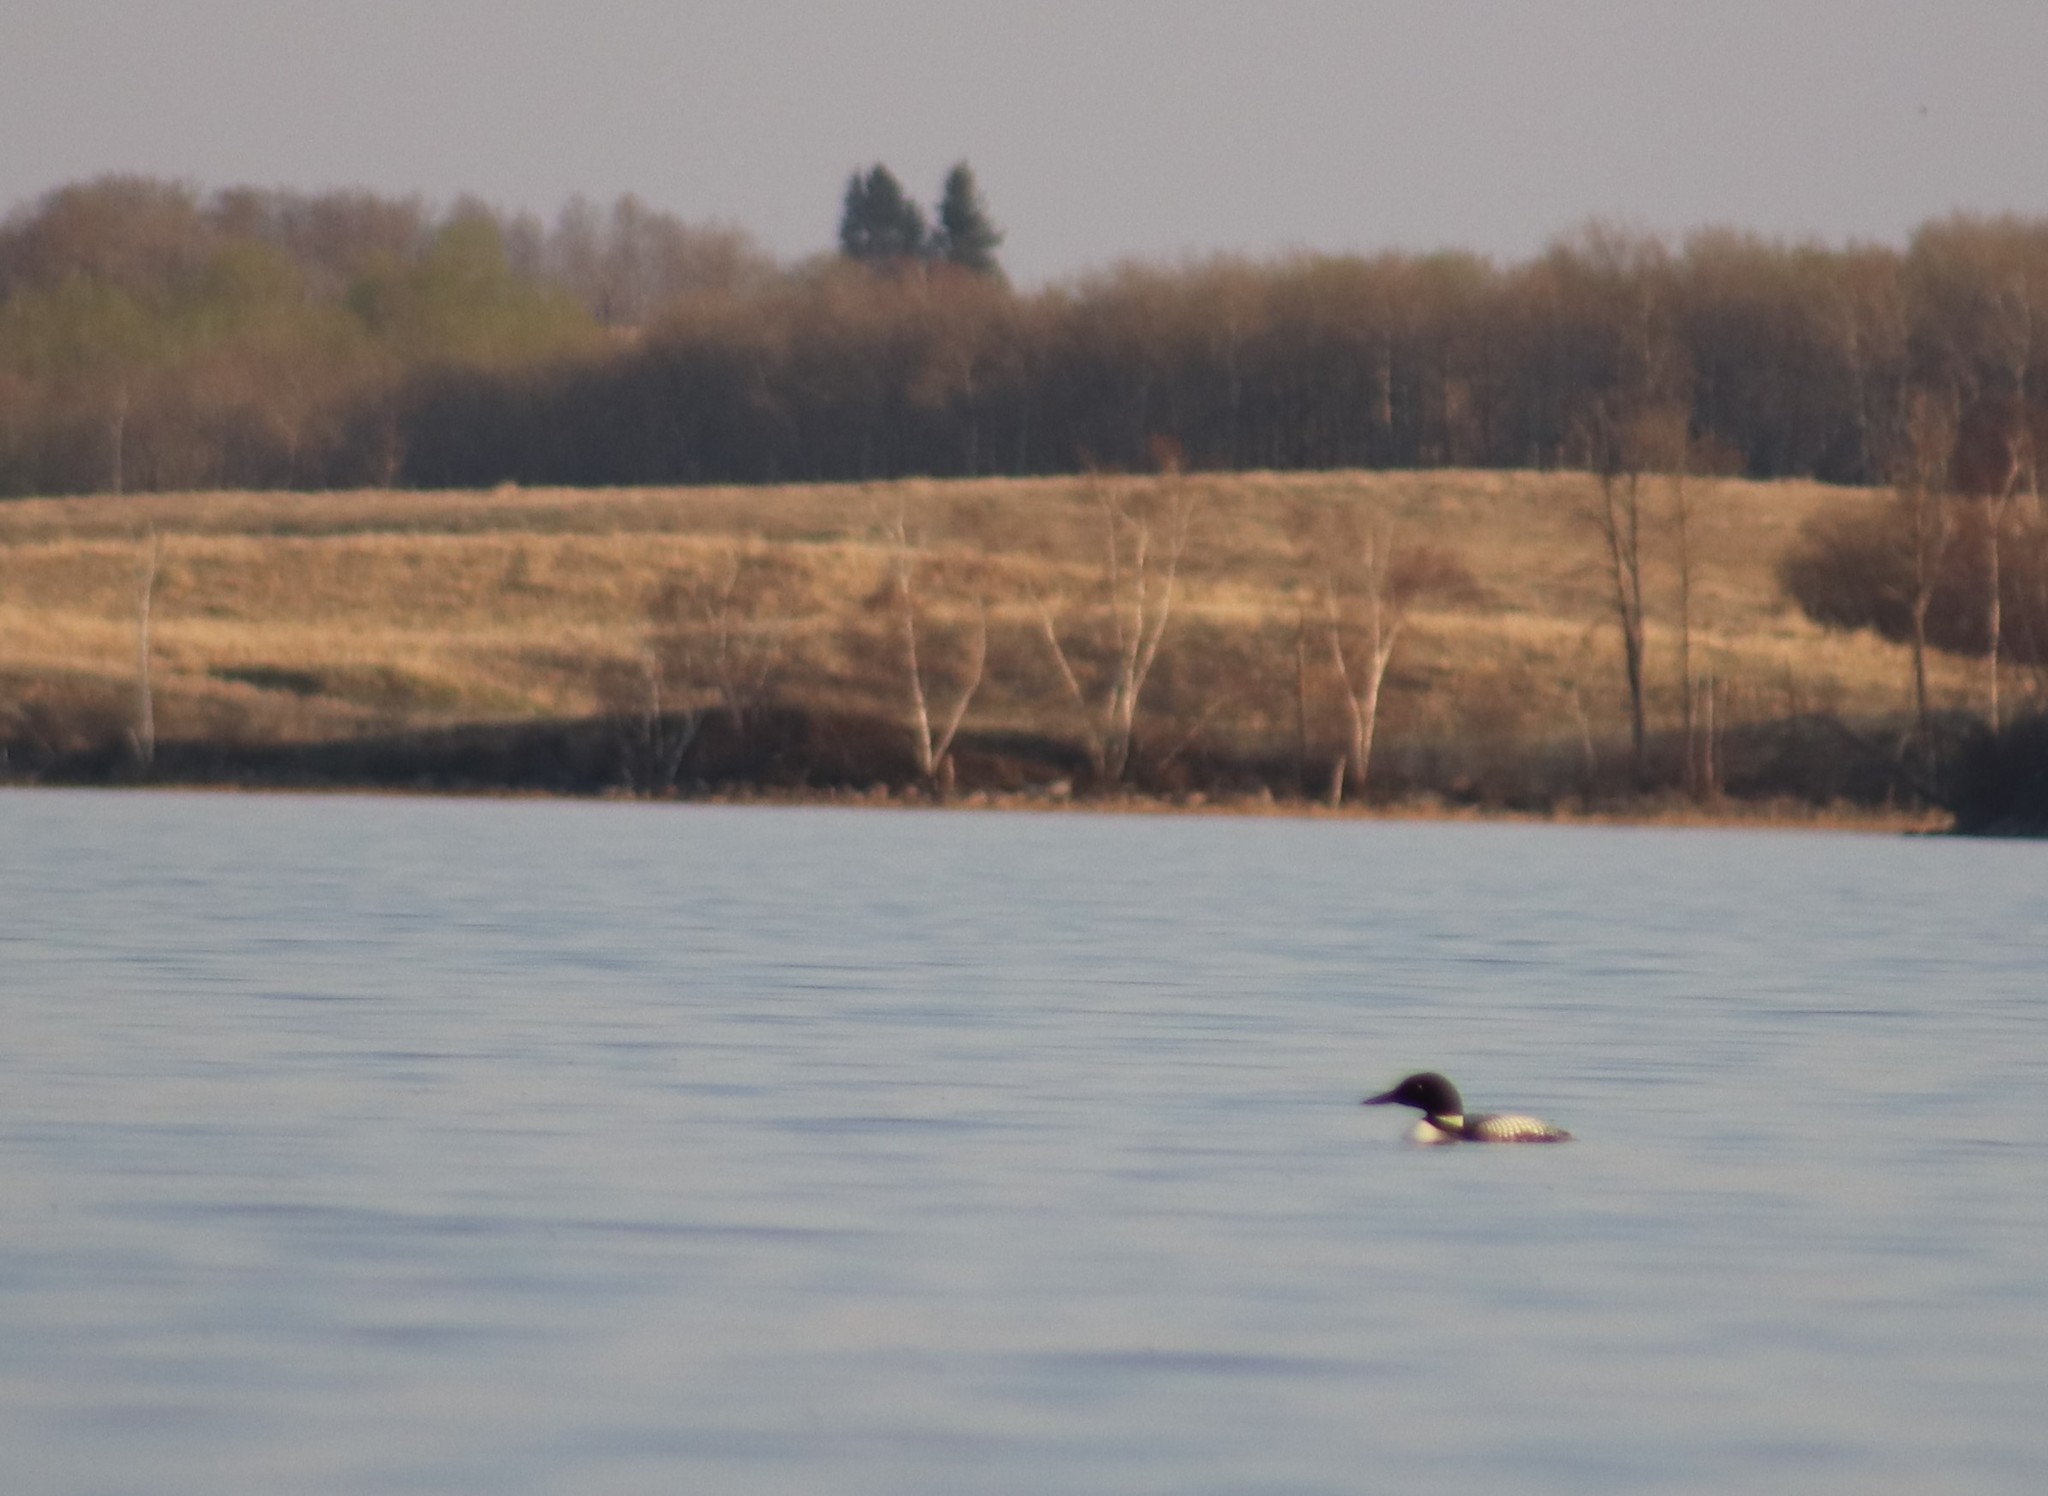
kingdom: Animalia
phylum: Chordata
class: Aves
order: Gaviiformes
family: Gaviidae
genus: Gavia
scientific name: Gavia immer
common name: Common loon
